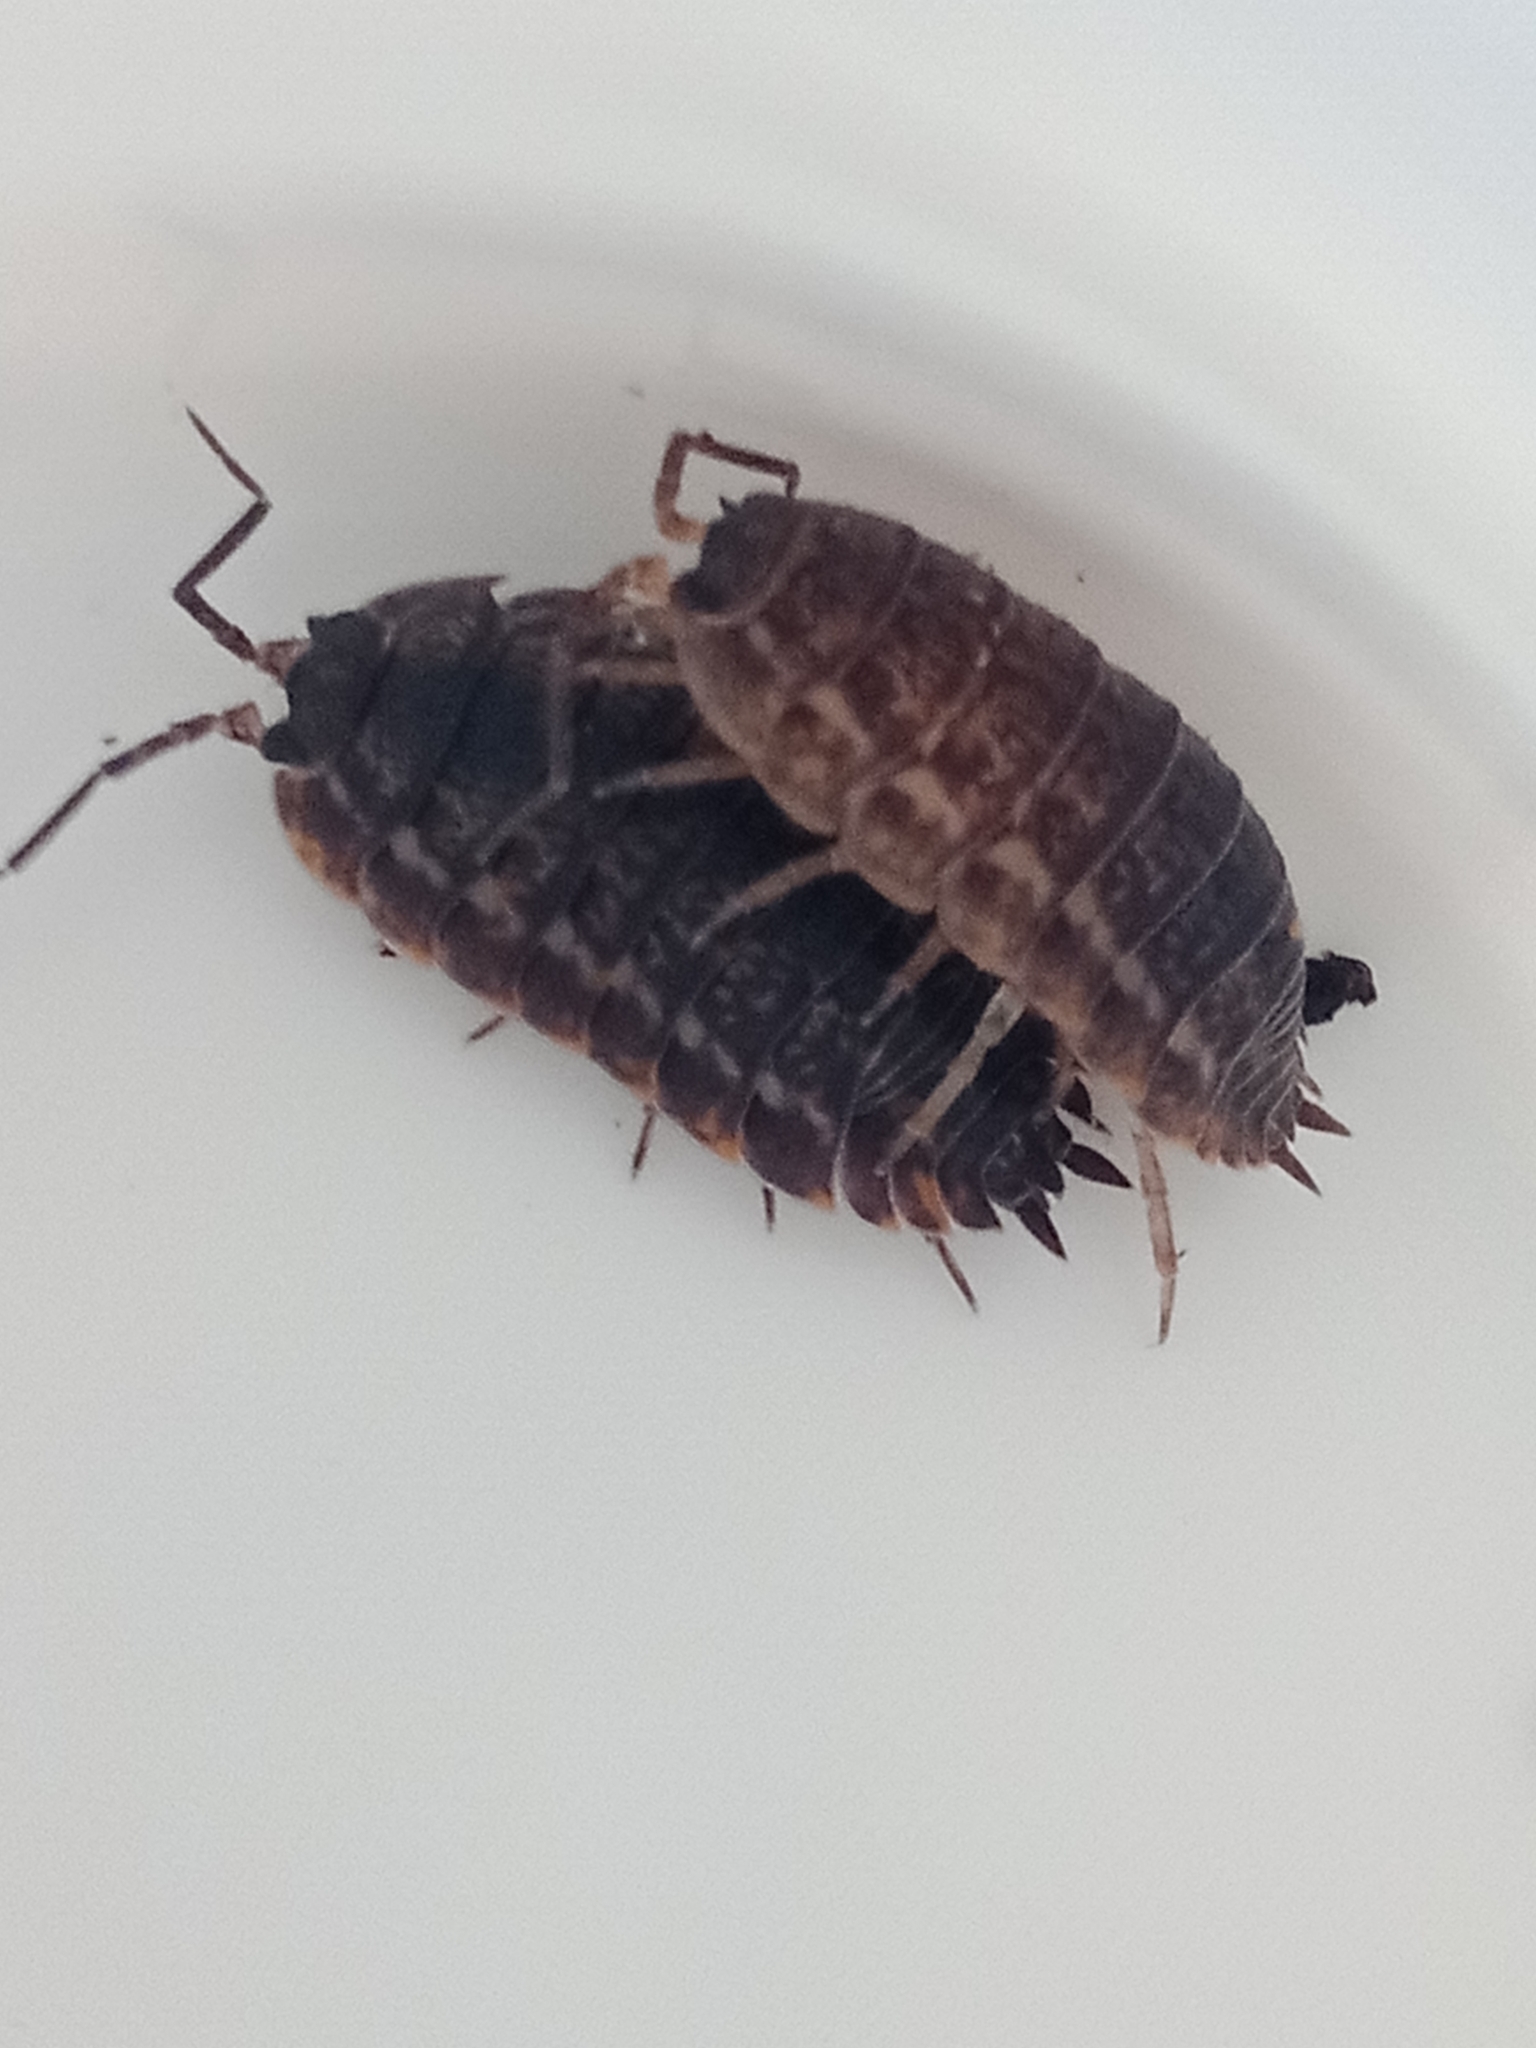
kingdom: Animalia
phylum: Arthropoda
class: Malacostraca
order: Isopoda
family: Trachelipodidae
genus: Trachelipus
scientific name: Trachelipus rathkii
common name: Isopod
